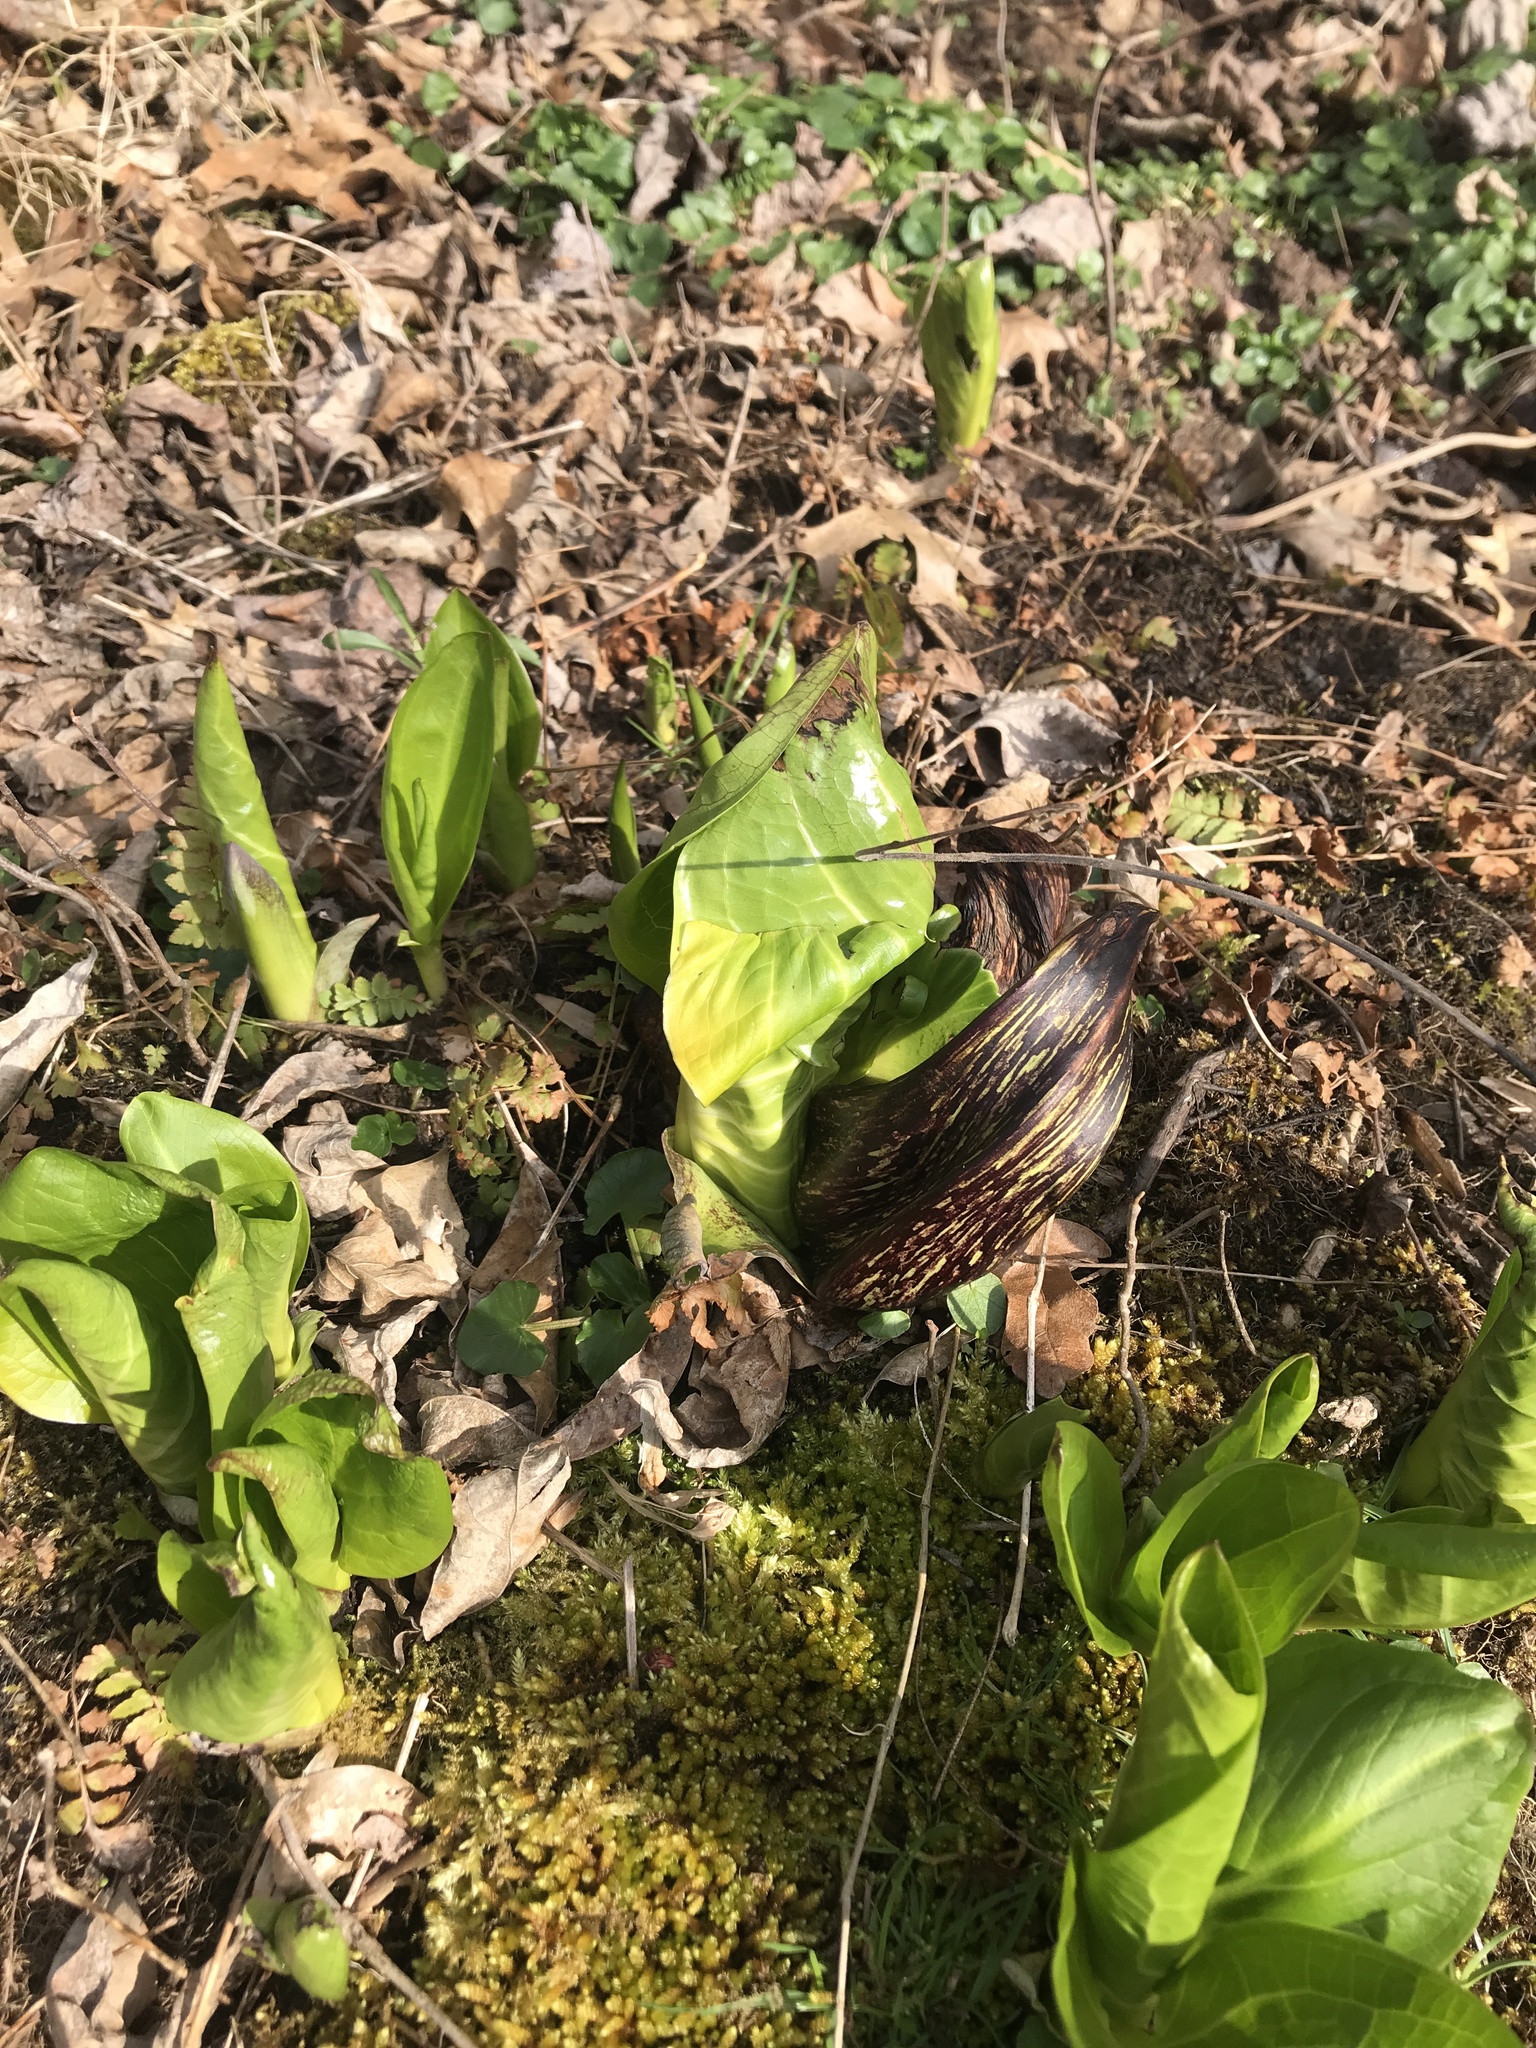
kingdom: Plantae
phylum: Tracheophyta
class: Liliopsida
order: Alismatales
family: Araceae
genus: Symplocarpus
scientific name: Symplocarpus foetidus
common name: Eastern skunk cabbage
